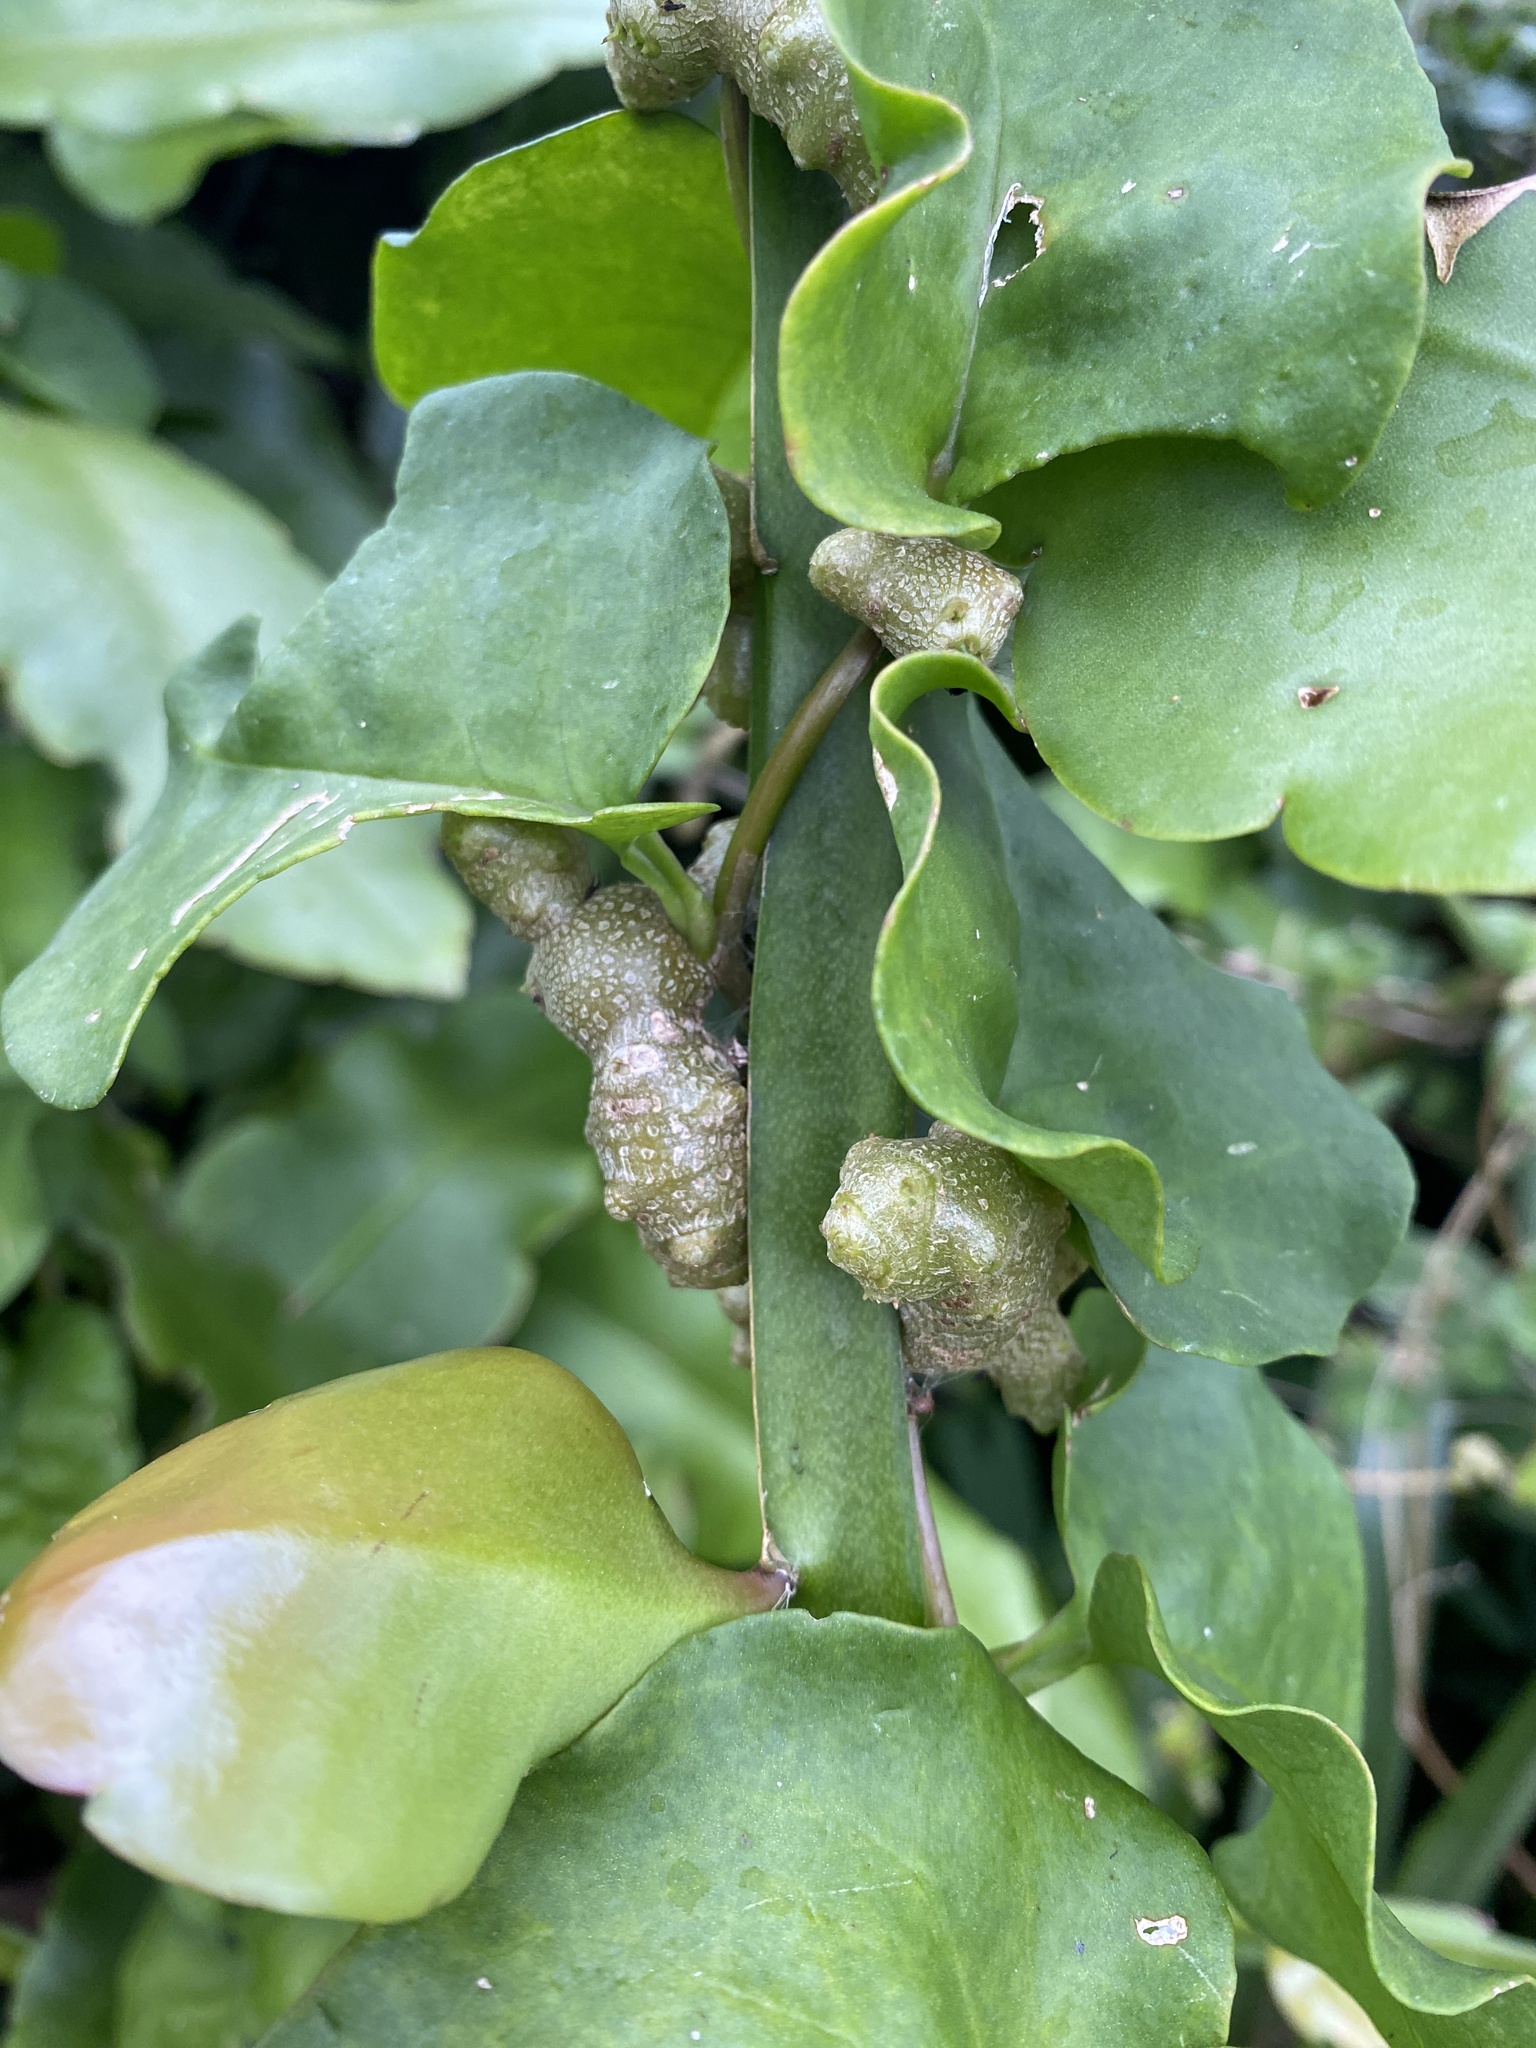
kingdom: Plantae
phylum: Tracheophyta
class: Magnoliopsida
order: Caryophyllales
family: Basellaceae
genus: Anredera
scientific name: Anredera cordifolia
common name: Heartleaf madeiravine
